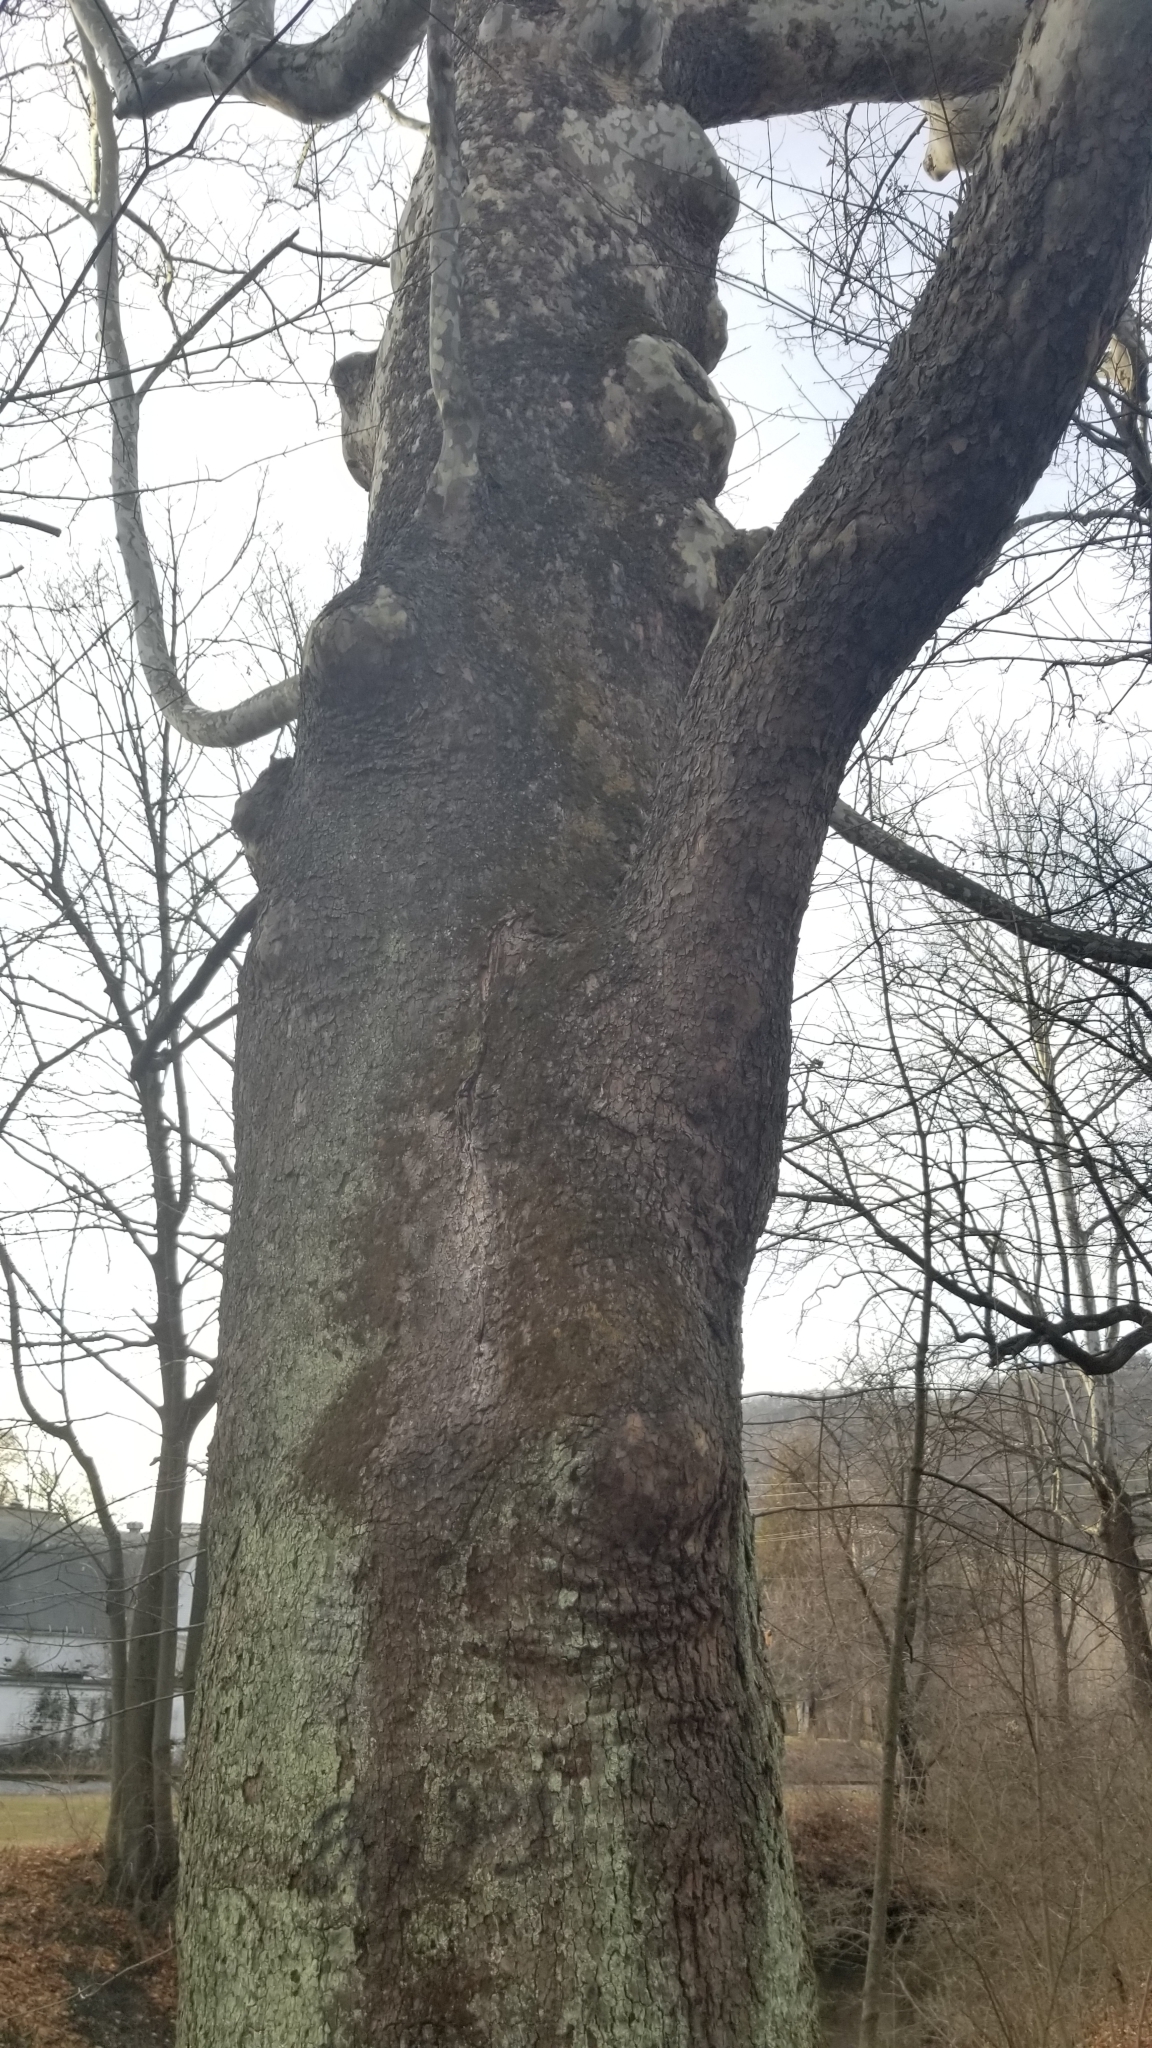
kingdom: Plantae
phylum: Tracheophyta
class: Magnoliopsida
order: Proteales
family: Platanaceae
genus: Platanus
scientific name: Platanus occidentalis
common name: American sycamore
